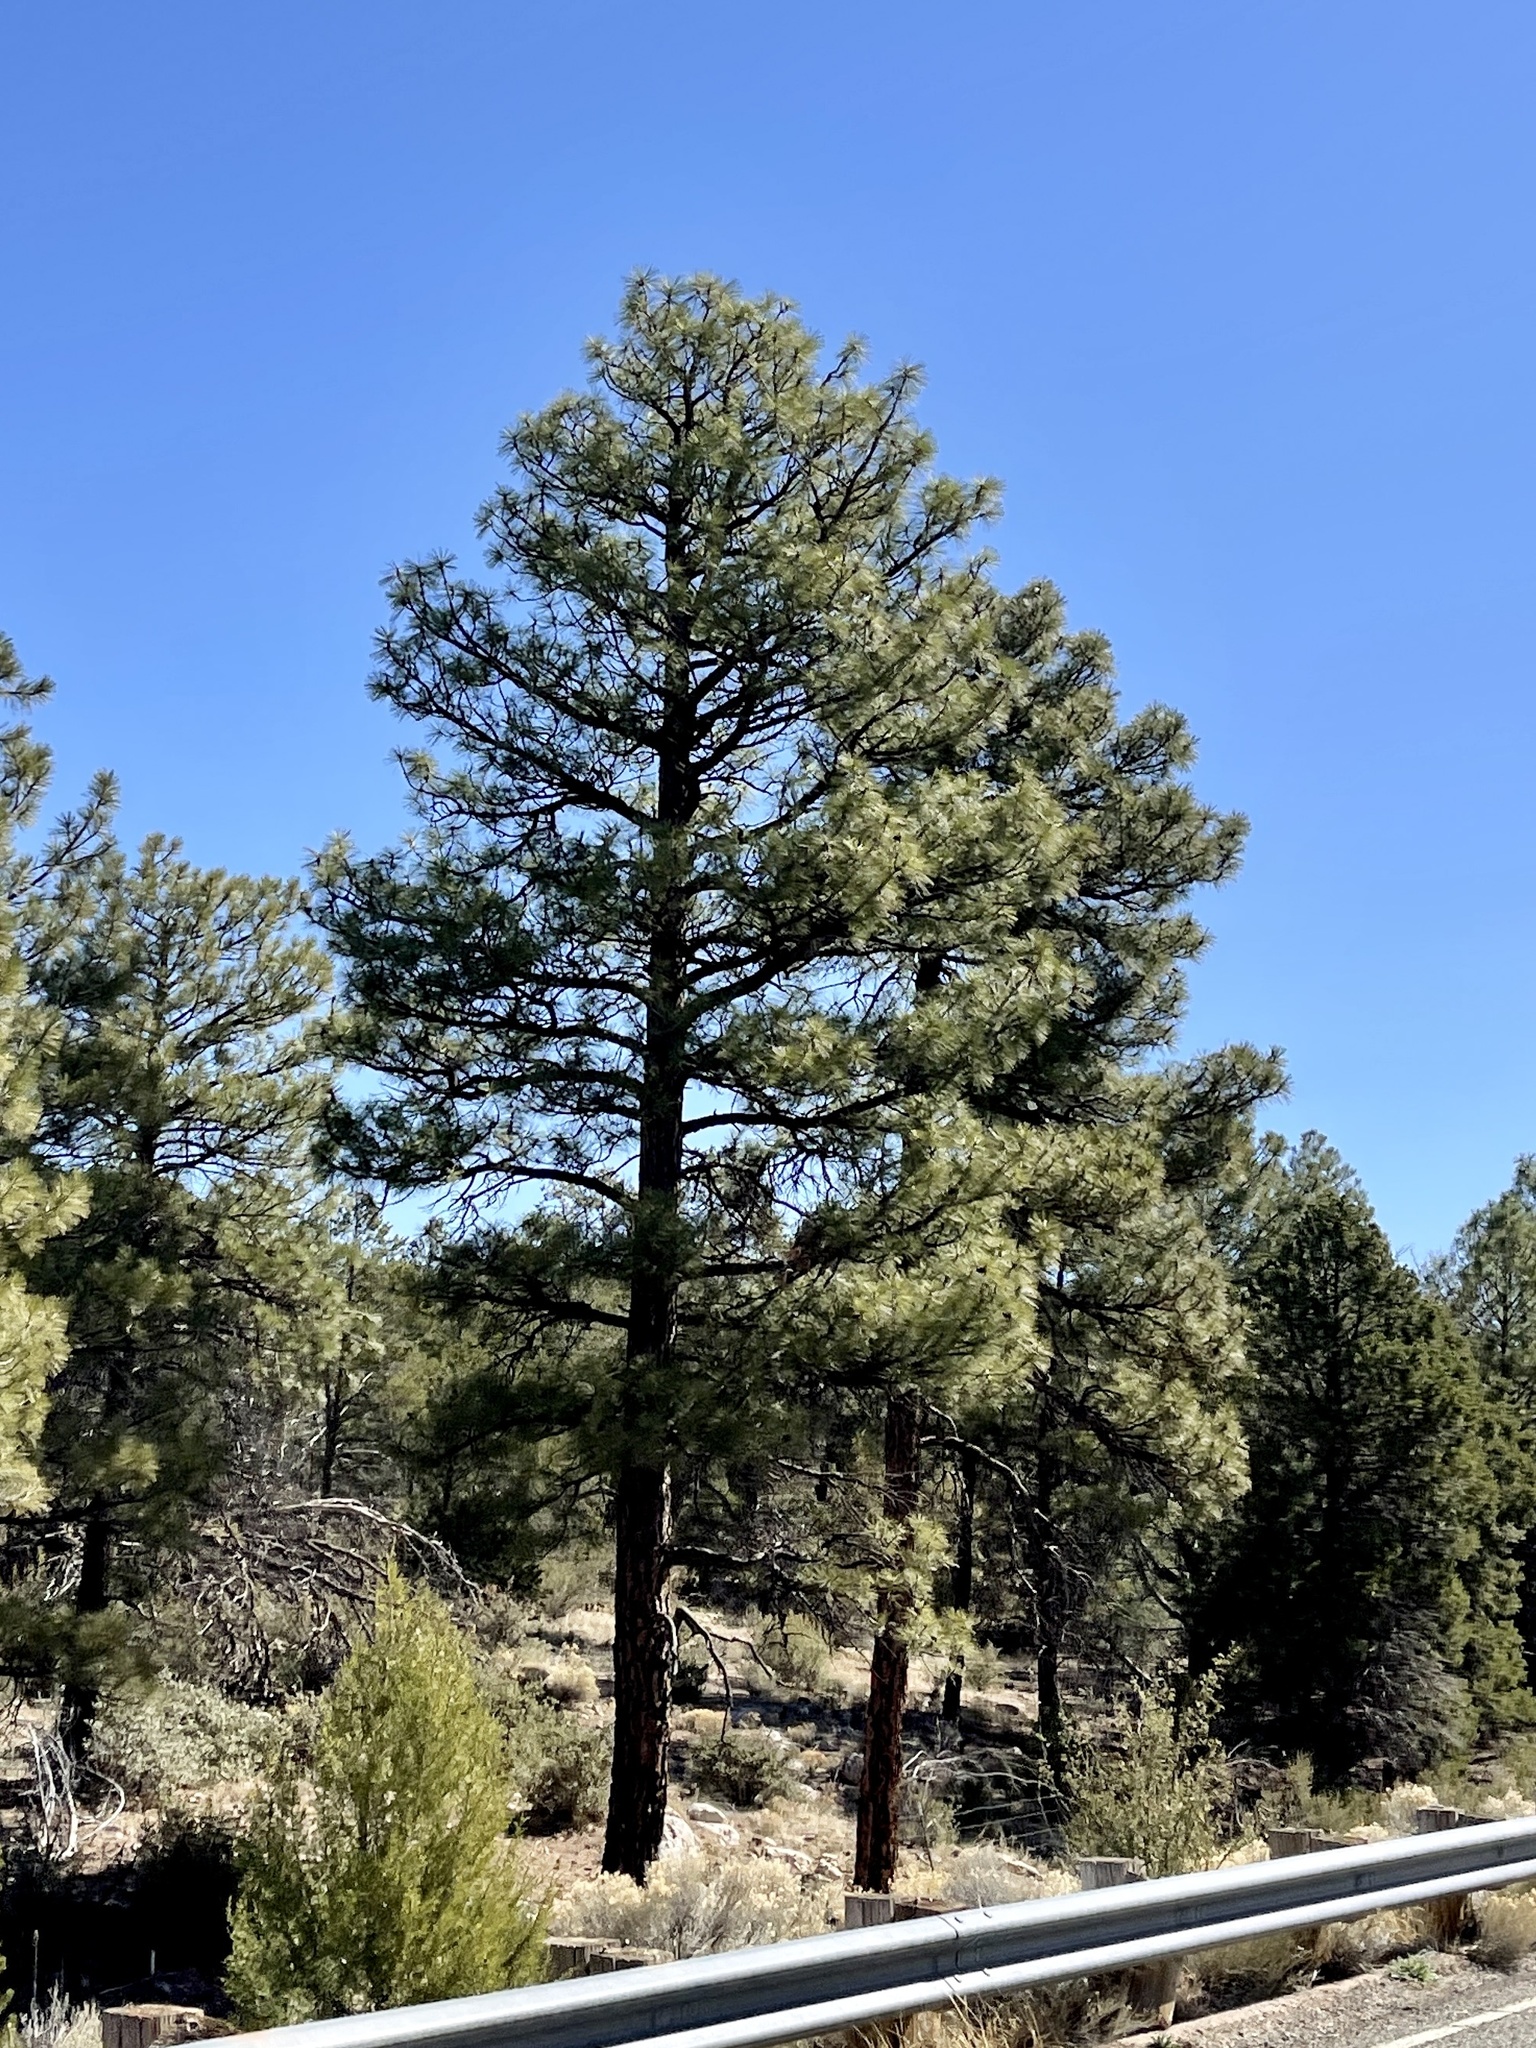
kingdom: Plantae
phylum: Tracheophyta
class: Pinopsida
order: Pinales
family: Pinaceae
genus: Pinus
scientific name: Pinus ponderosa
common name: Western yellow-pine
